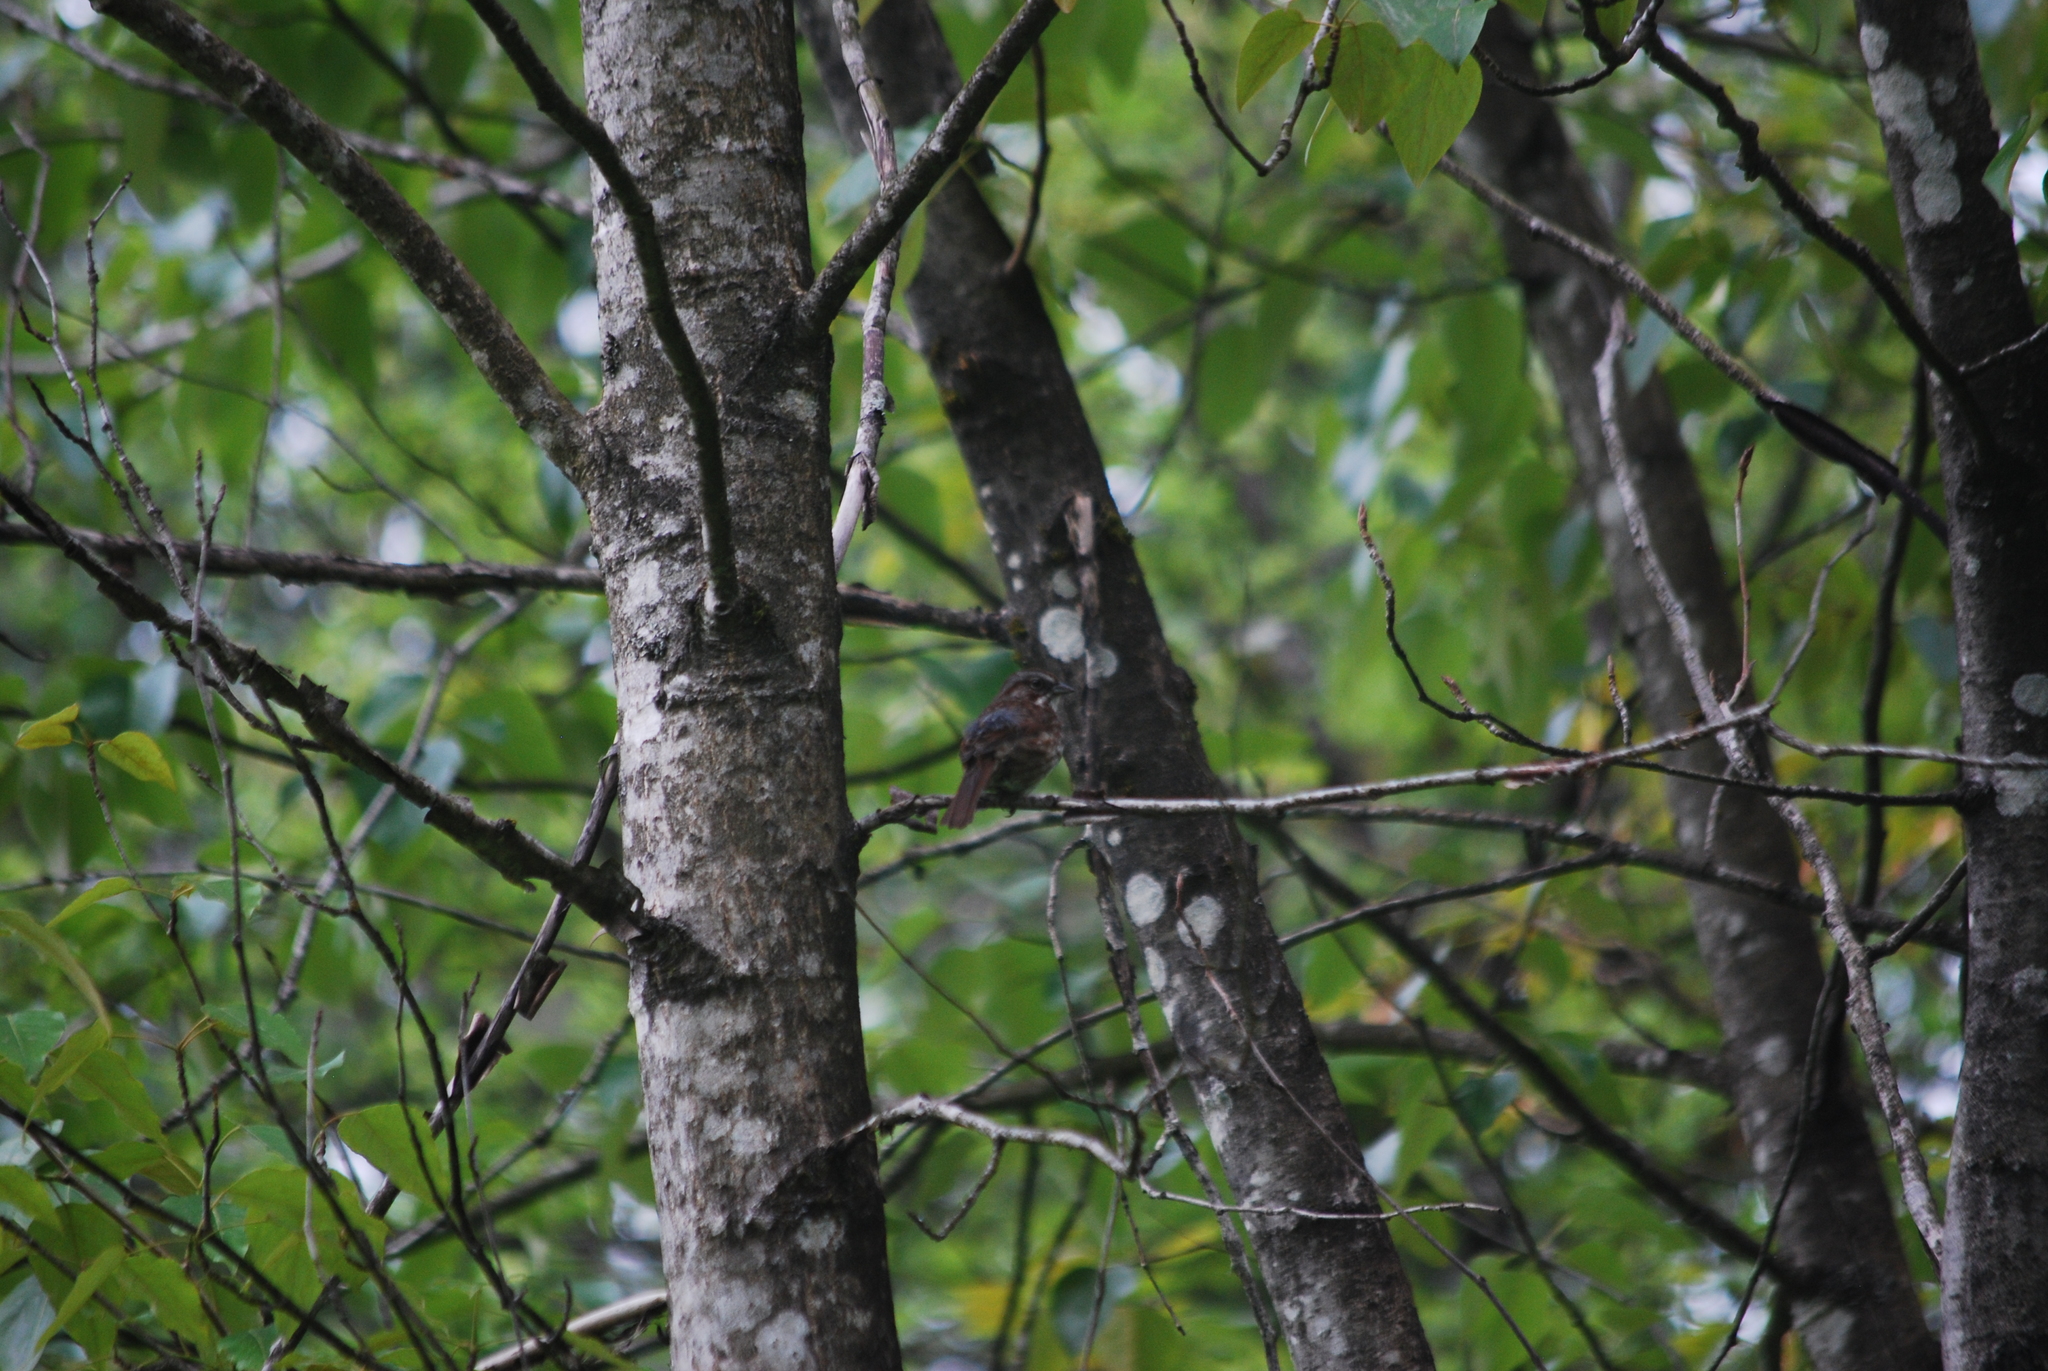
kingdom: Animalia
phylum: Chordata
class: Aves
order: Passeriformes
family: Passerellidae
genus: Melospiza
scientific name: Melospiza melodia
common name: Song sparrow
